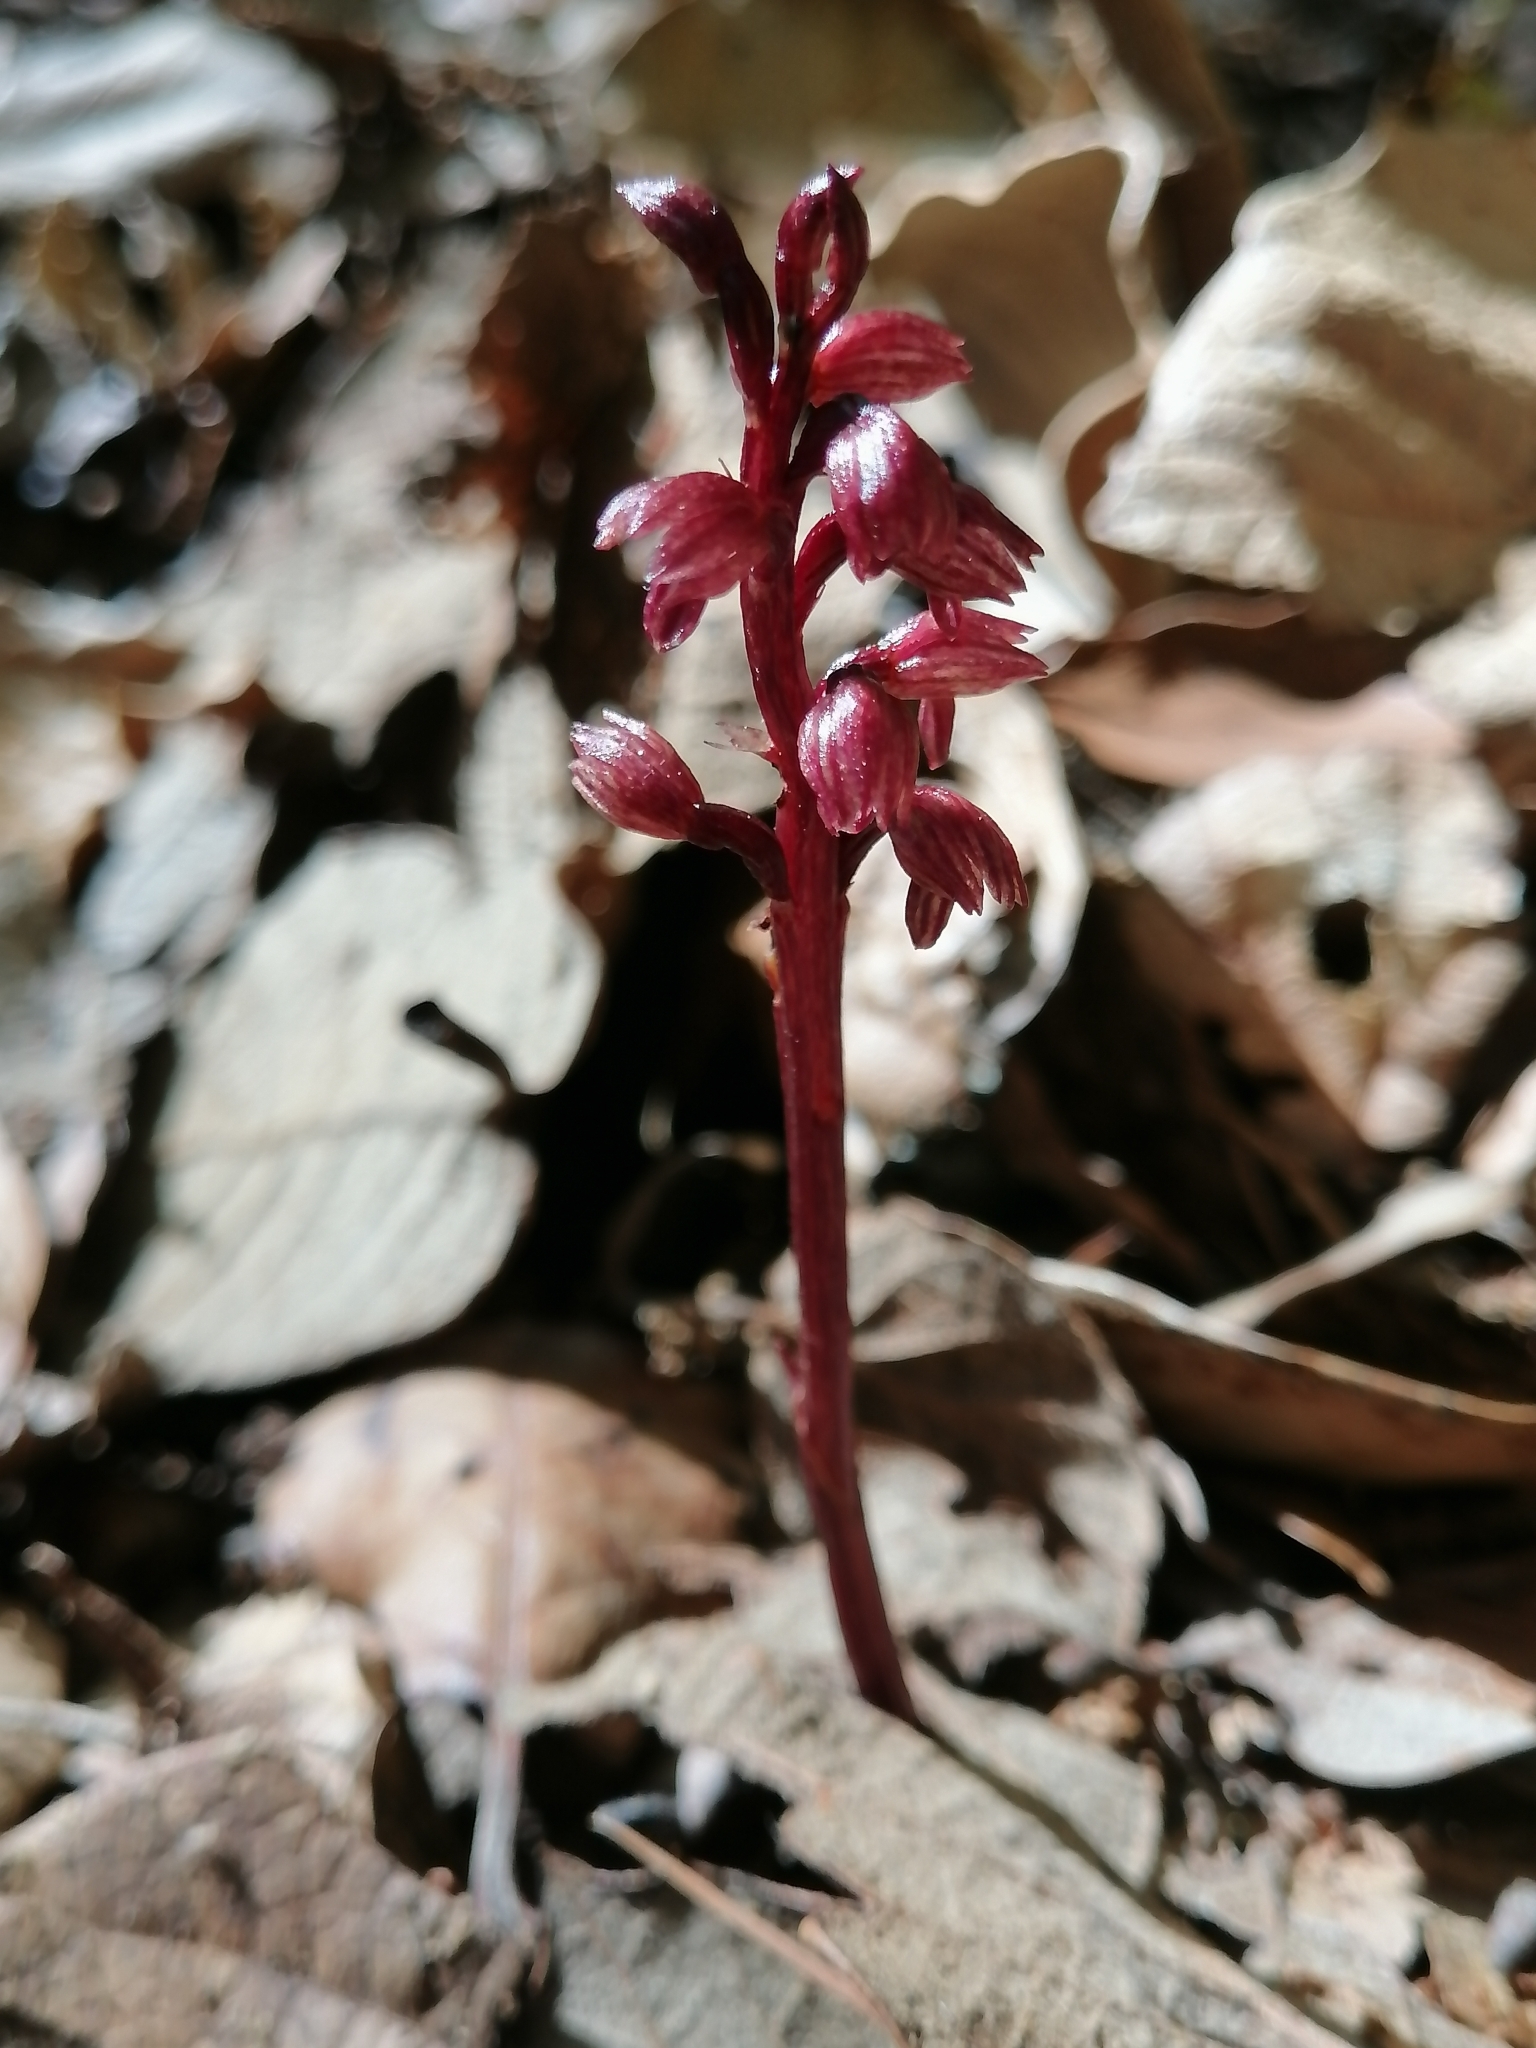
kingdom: Plantae
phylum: Tracheophyta
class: Liliopsida
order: Asparagales
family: Orchidaceae
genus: Corallorhiza
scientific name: Corallorhiza striata
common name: Hooded coralroot
